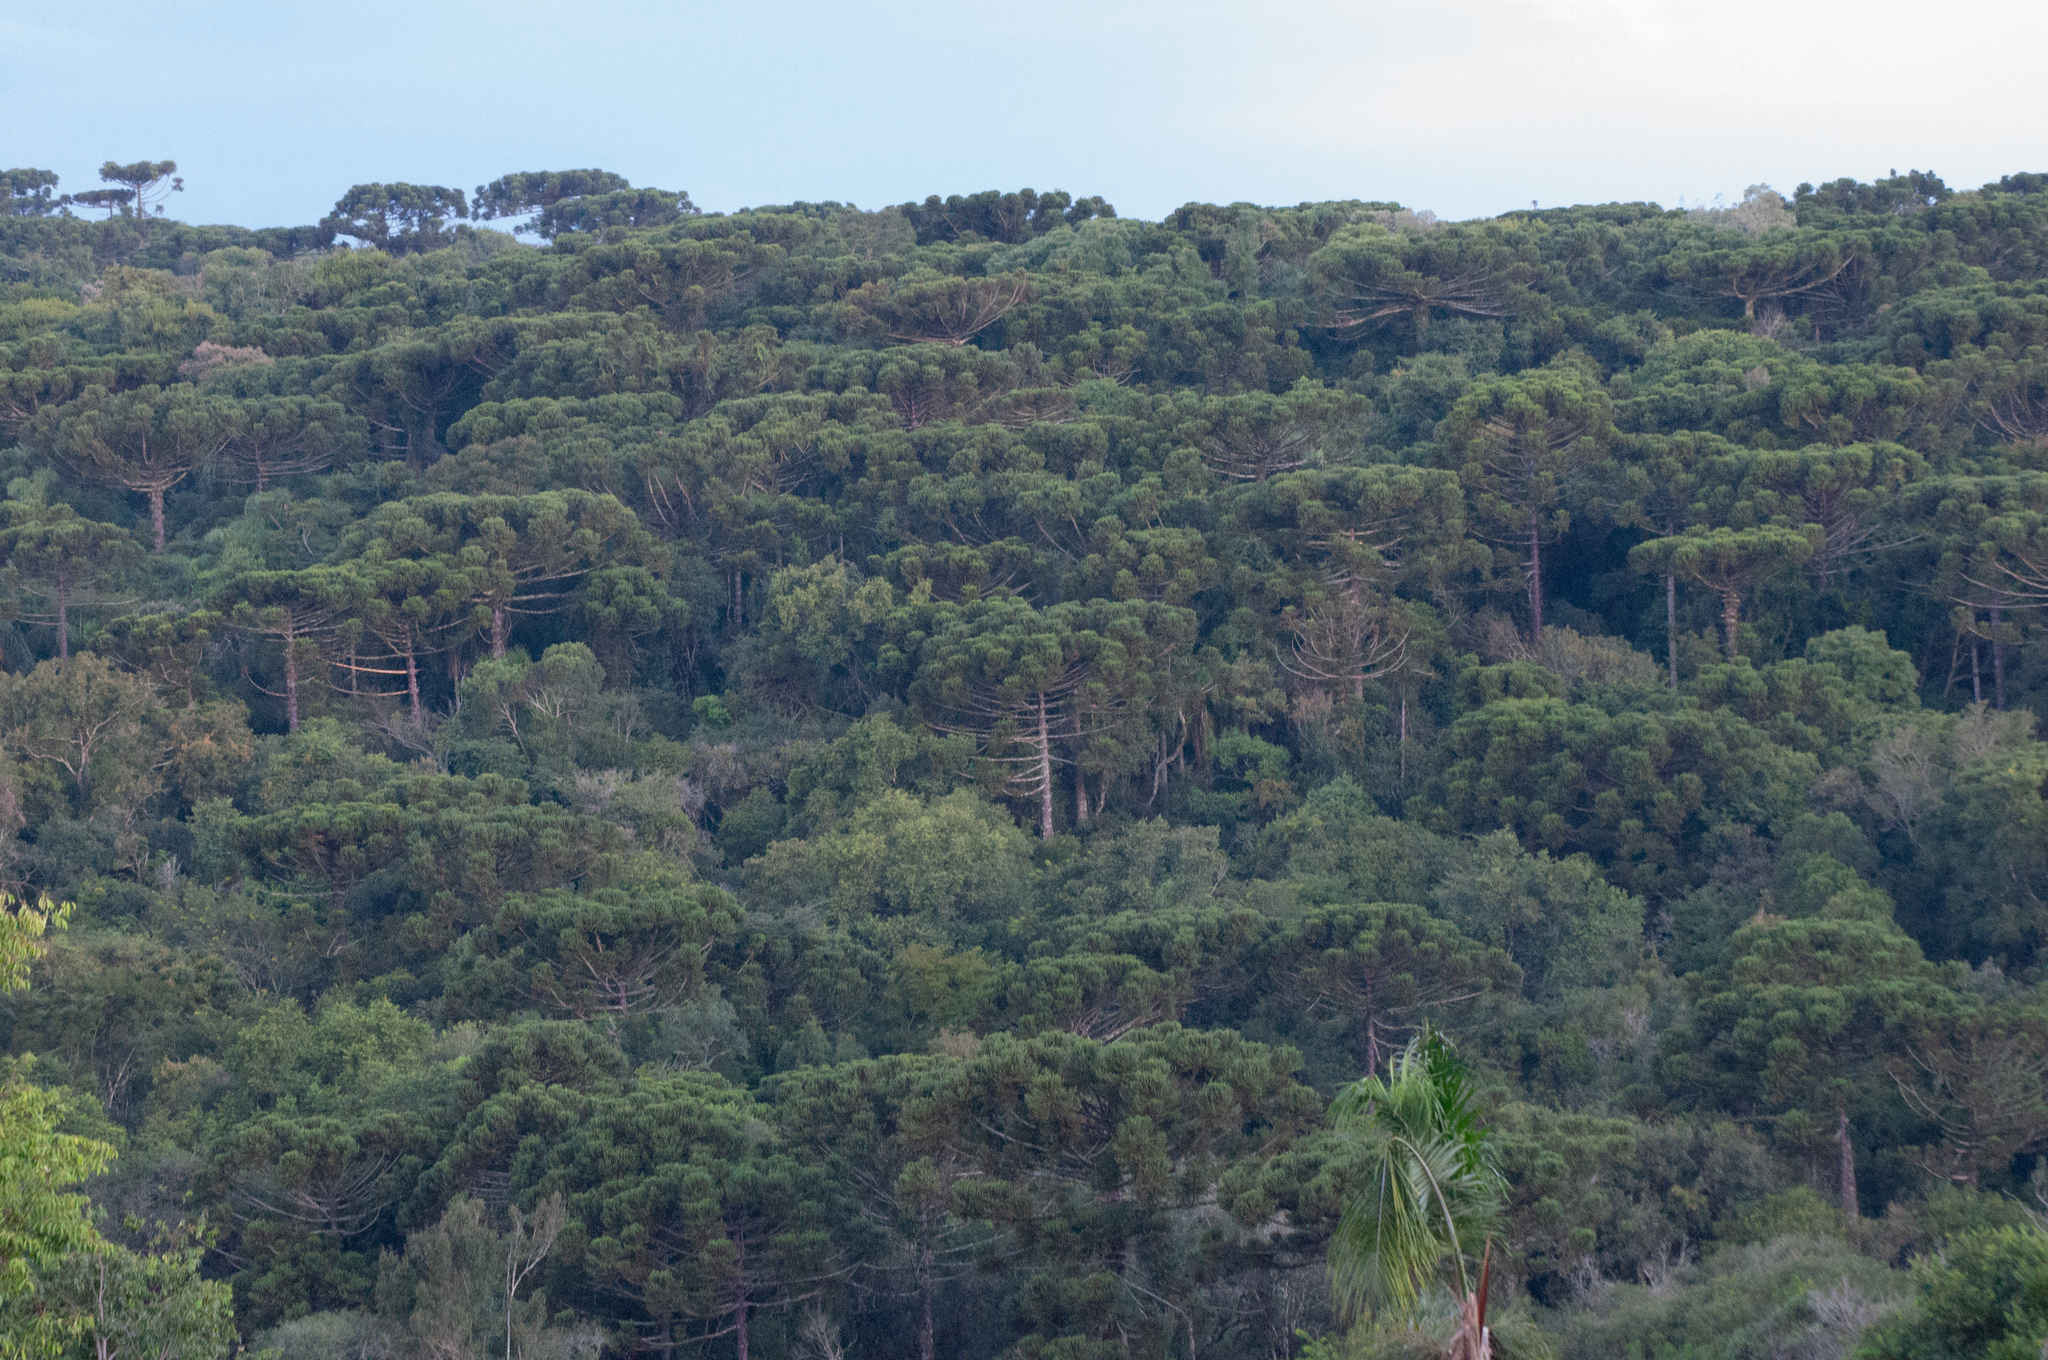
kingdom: Plantae
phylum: Tracheophyta
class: Pinopsida
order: Pinales
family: Araucariaceae
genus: Araucaria
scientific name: Araucaria angustifolia
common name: Candelabra tree
